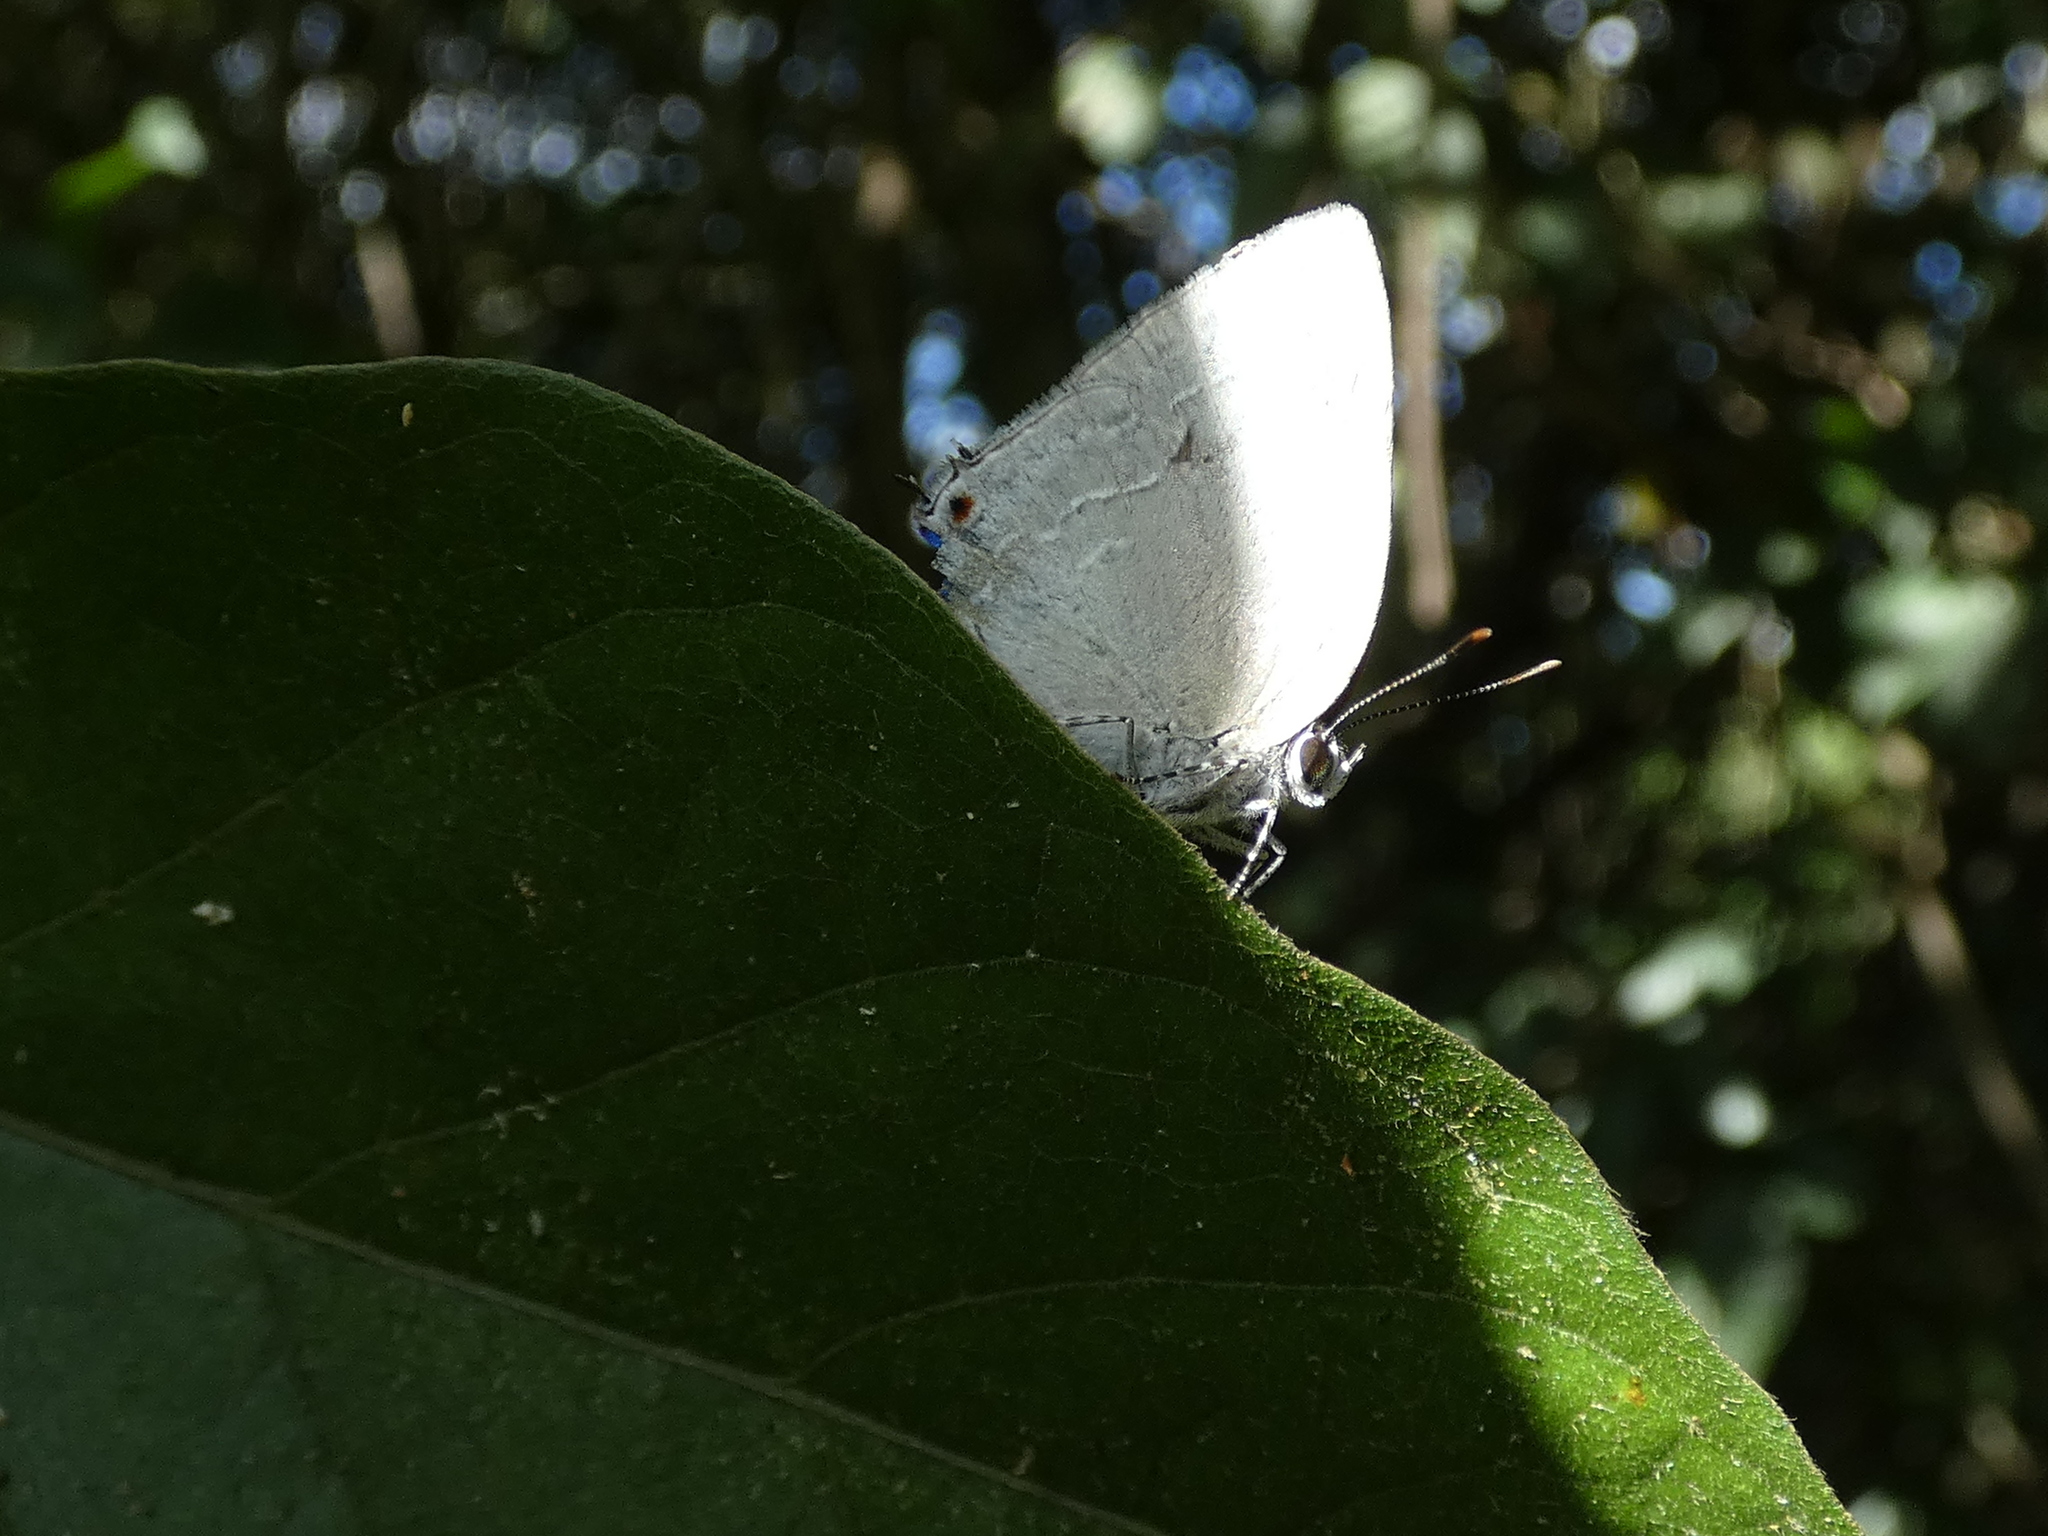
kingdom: Animalia
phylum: Arthropoda
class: Insecta
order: Lepidoptera
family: Lycaenidae
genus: Strephonota
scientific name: Strephonota tephraeus
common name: Pearly-gray hairstreak
